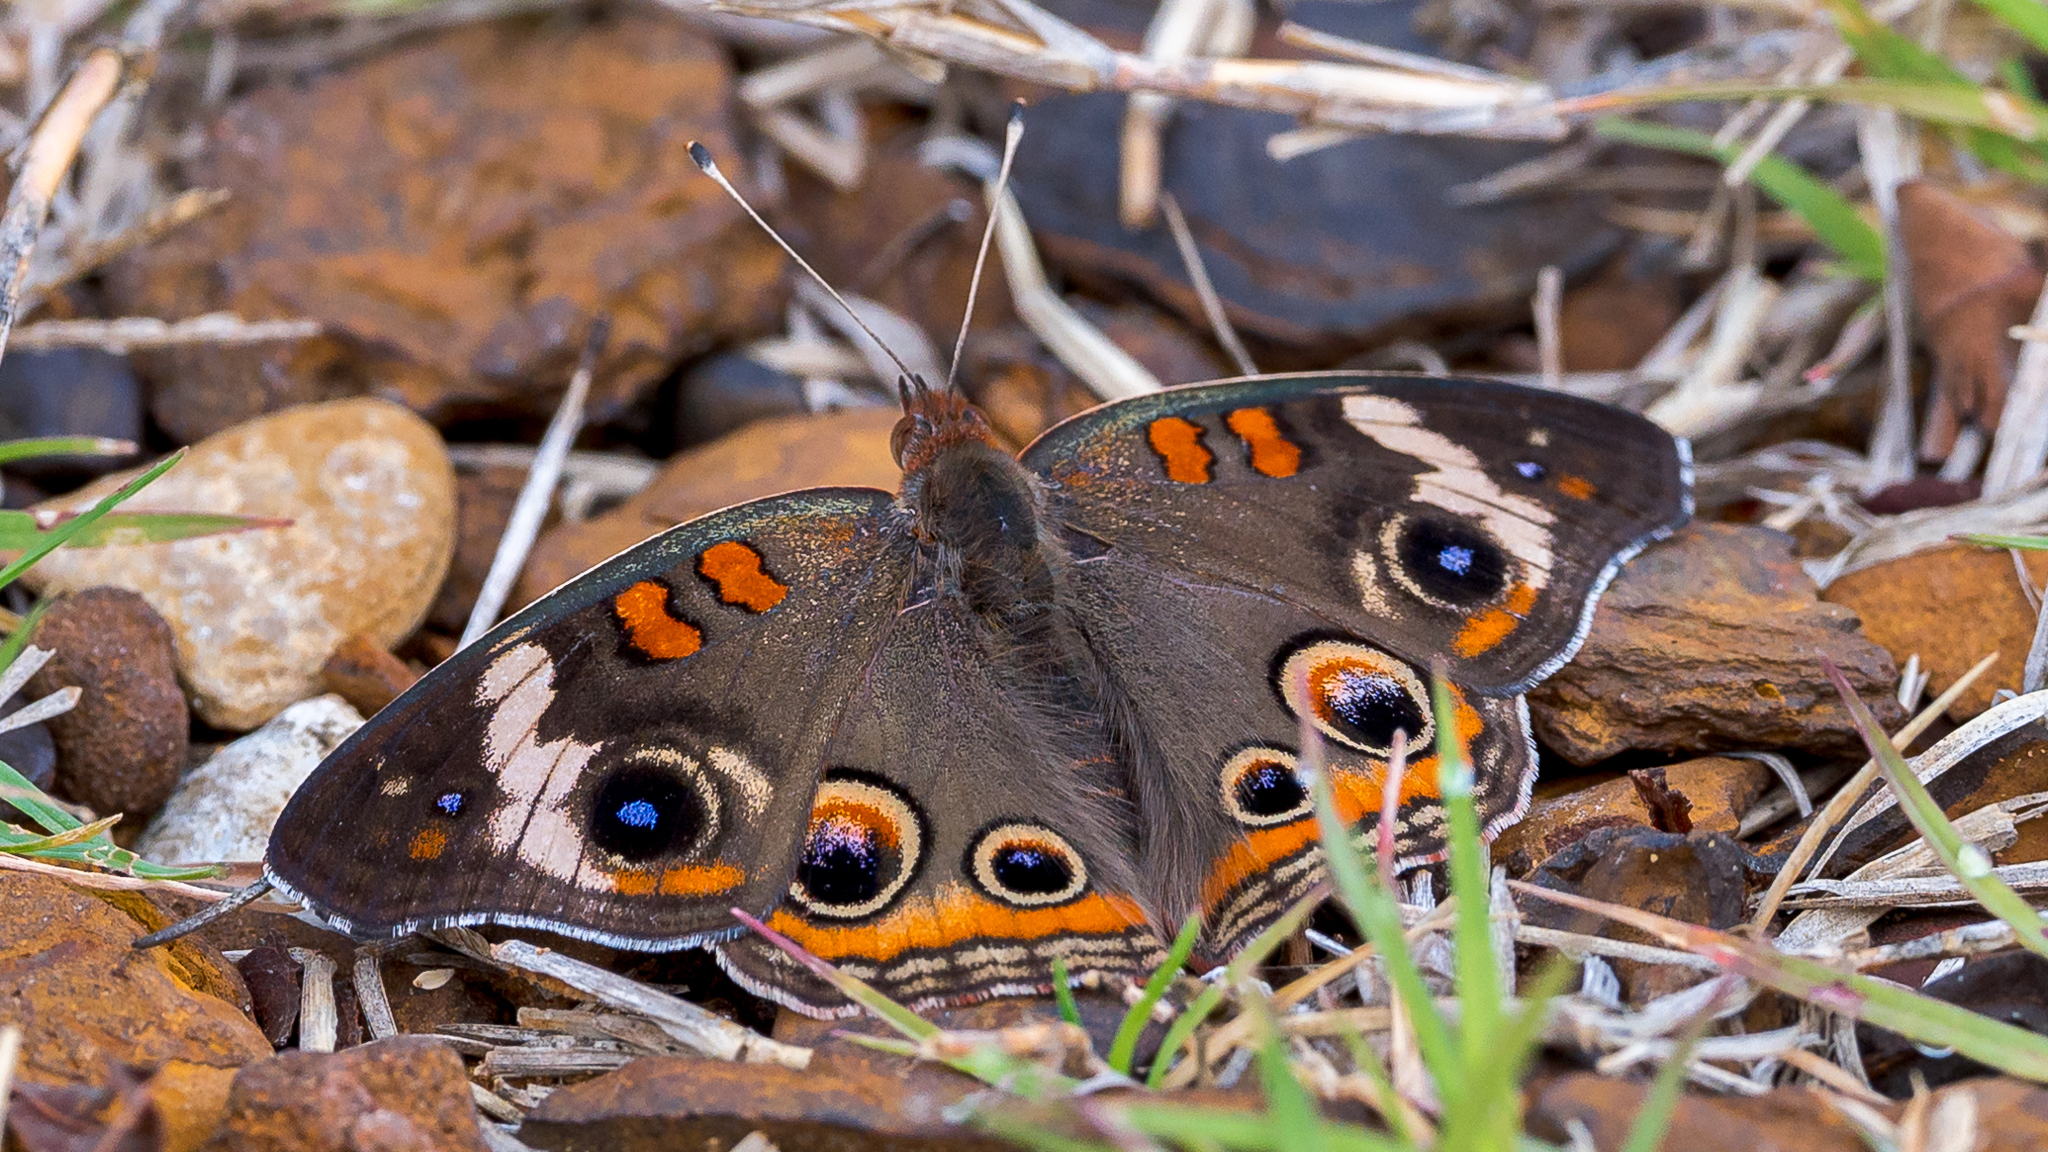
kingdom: Animalia
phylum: Arthropoda
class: Insecta
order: Lepidoptera
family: Nymphalidae
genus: Junonia
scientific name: Junonia coenia
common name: Common buckeye
